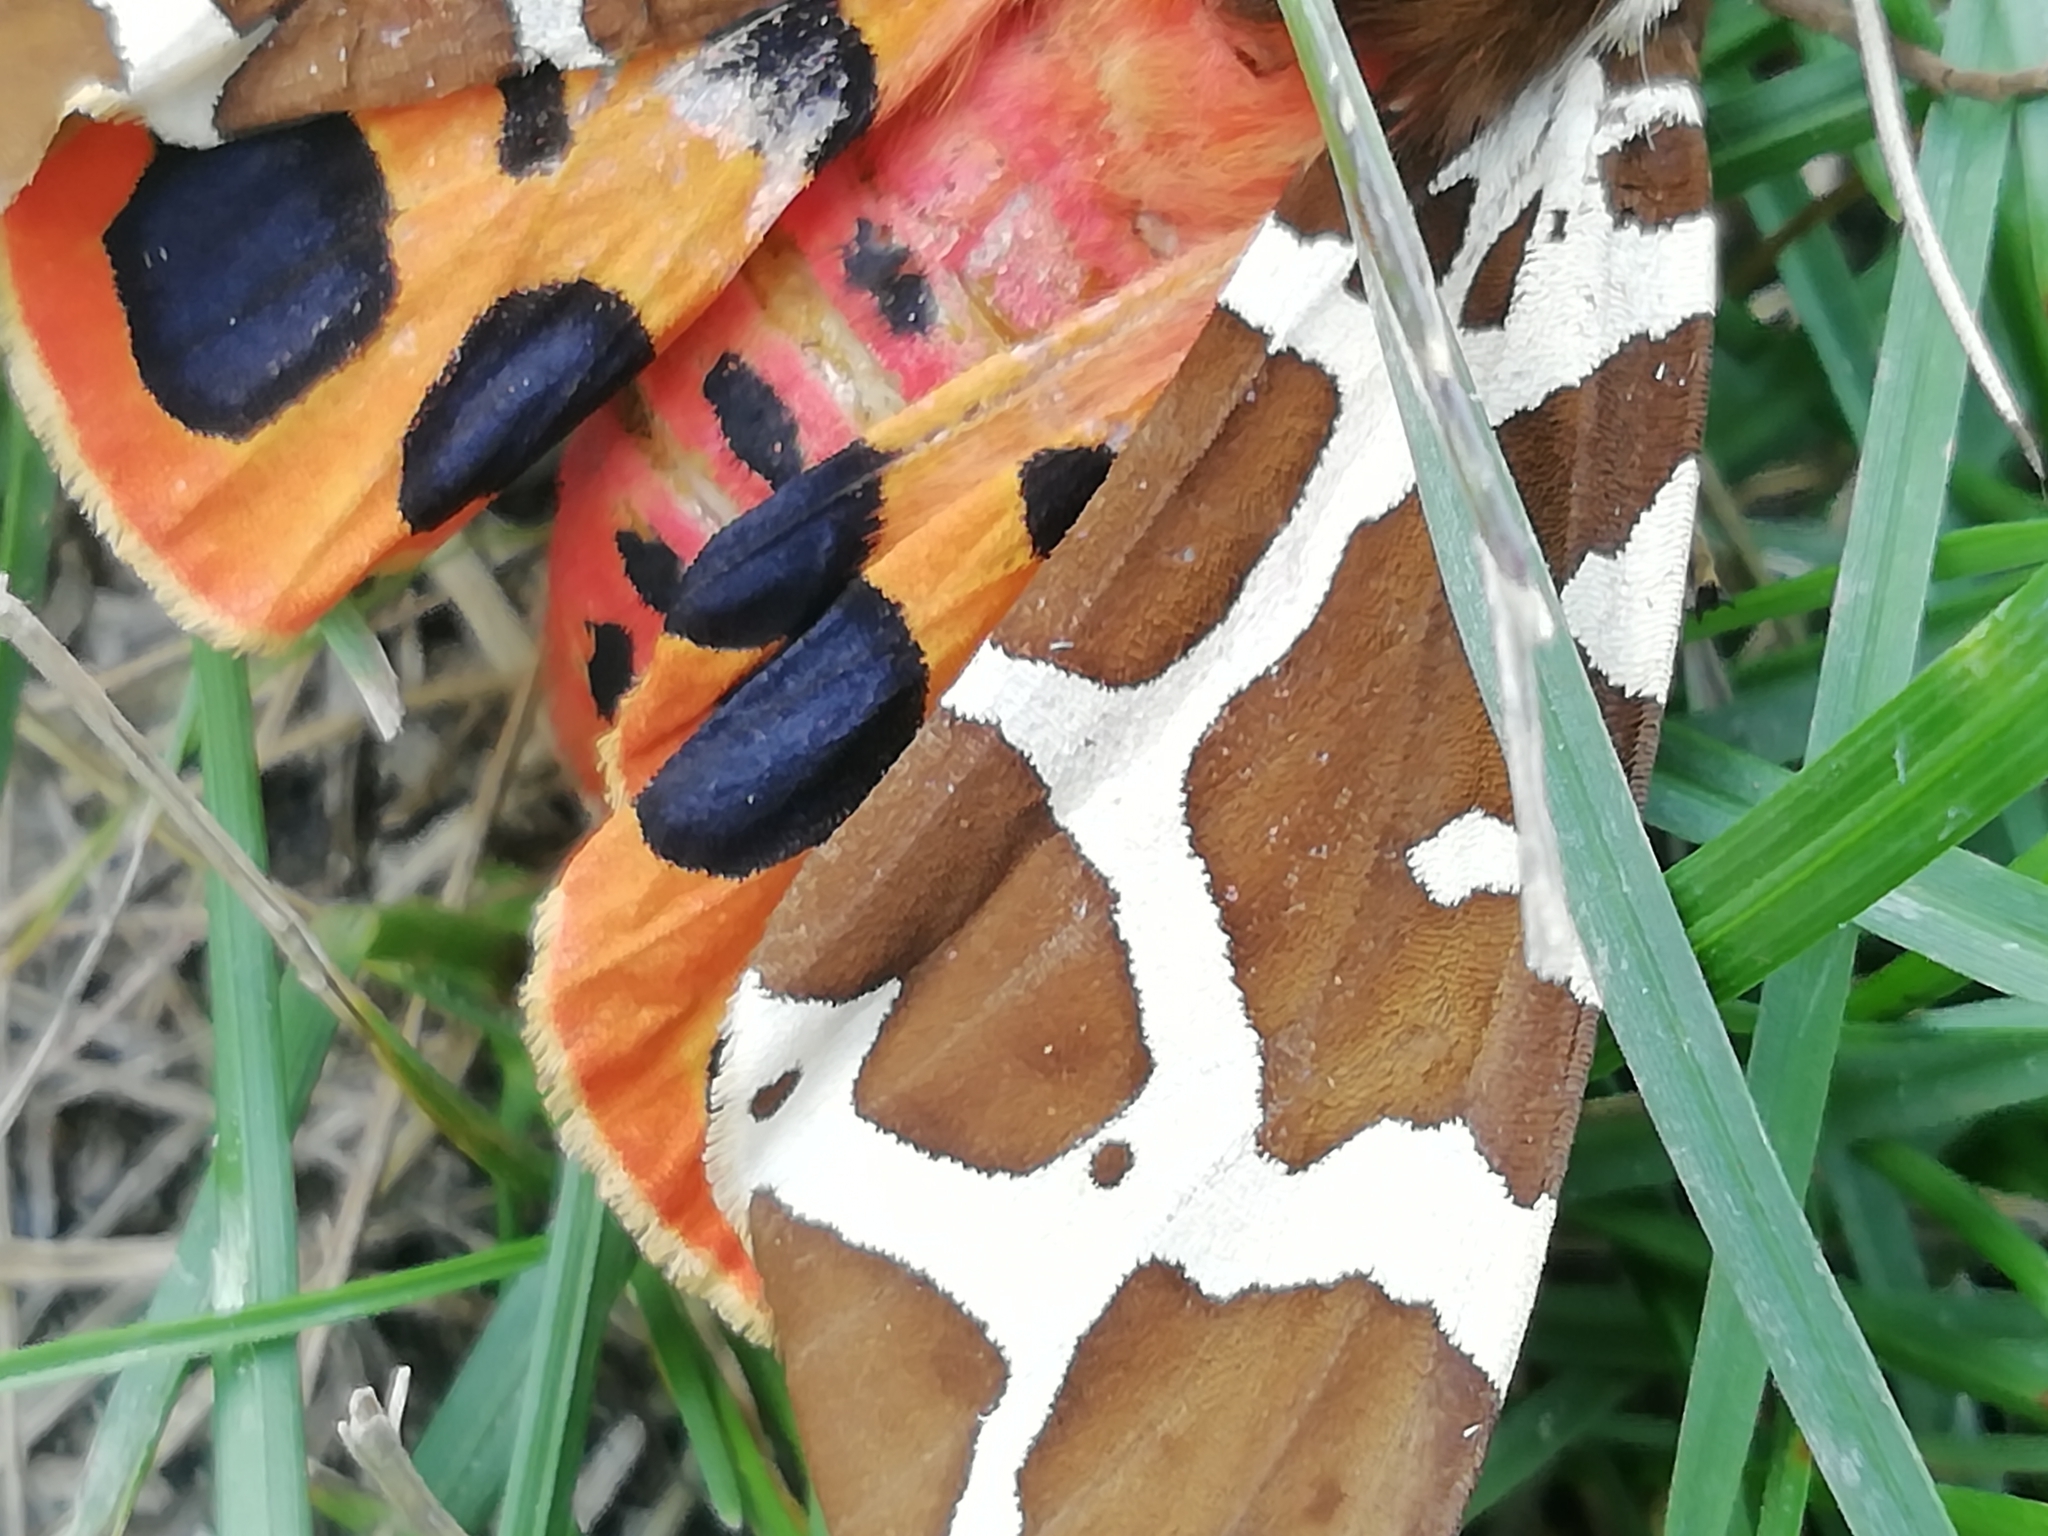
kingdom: Animalia
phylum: Arthropoda
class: Insecta
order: Lepidoptera
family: Erebidae
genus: Arctia
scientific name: Arctia caja
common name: Garden tiger
